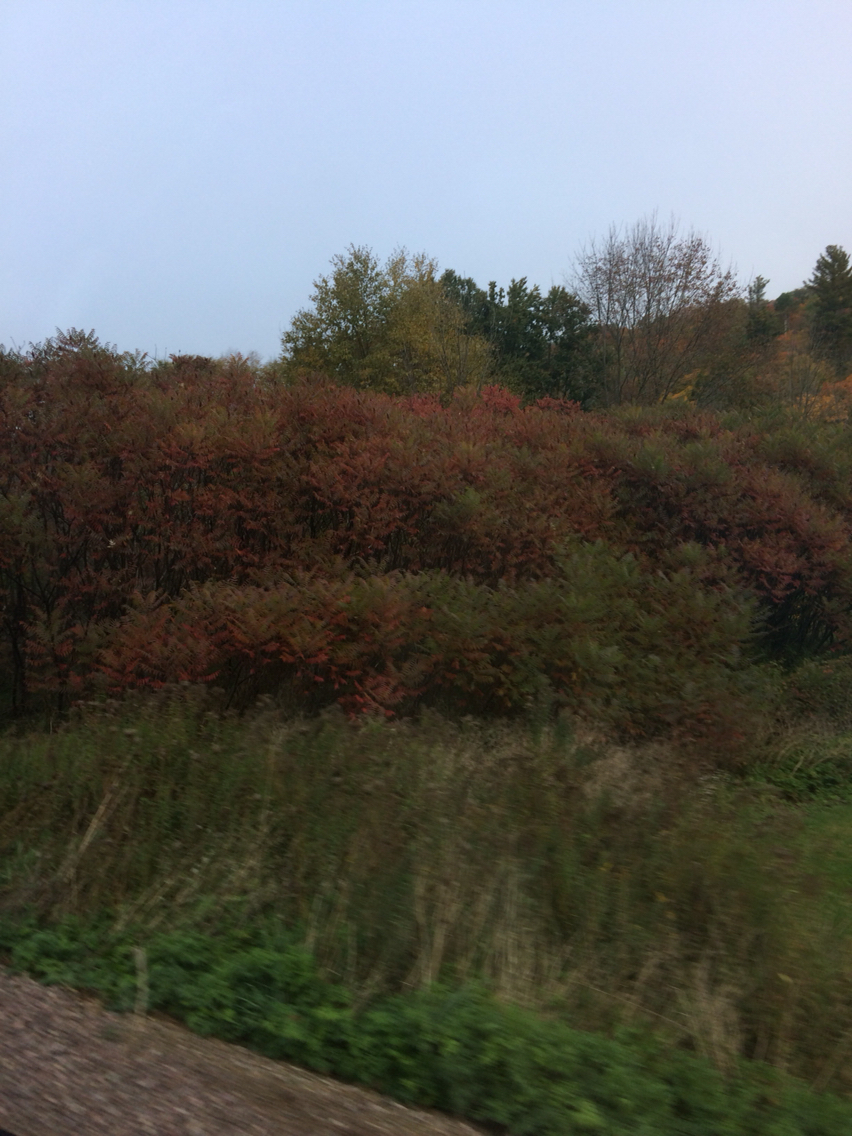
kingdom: Plantae
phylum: Tracheophyta
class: Magnoliopsida
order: Sapindales
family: Anacardiaceae
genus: Rhus
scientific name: Rhus typhina
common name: Staghorn sumac
